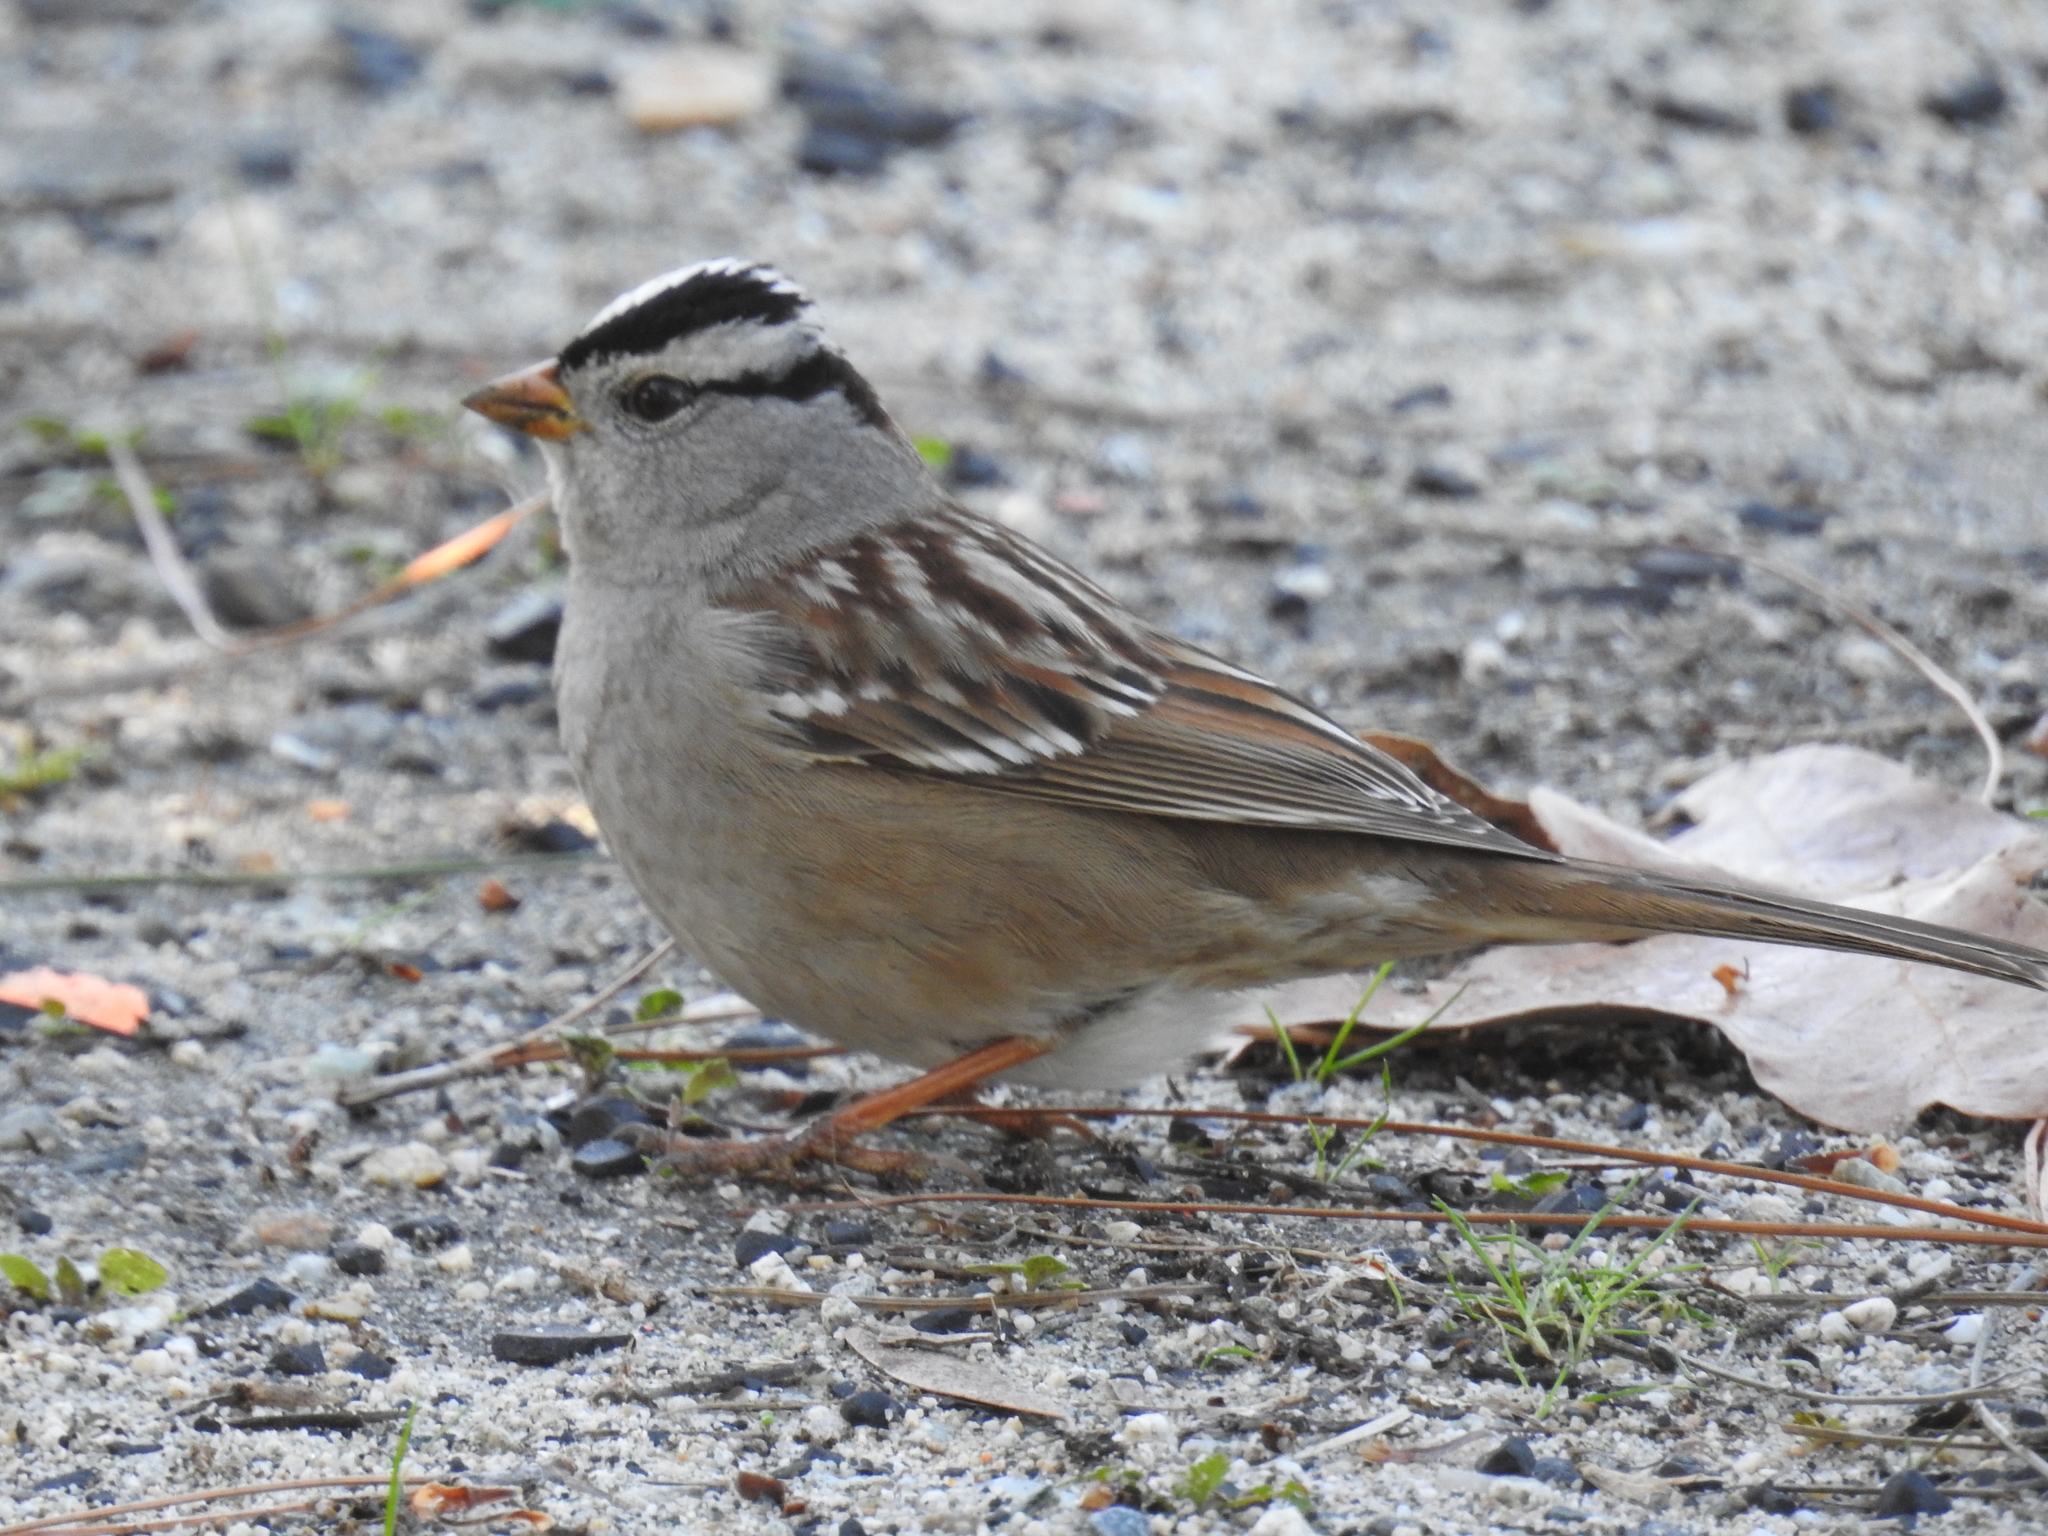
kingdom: Animalia
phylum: Chordata
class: Aves
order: Passeriformes
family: Passerellidae
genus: Zonotrichia
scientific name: Zonotrichia leucophrys
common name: White-crowned sparrow
